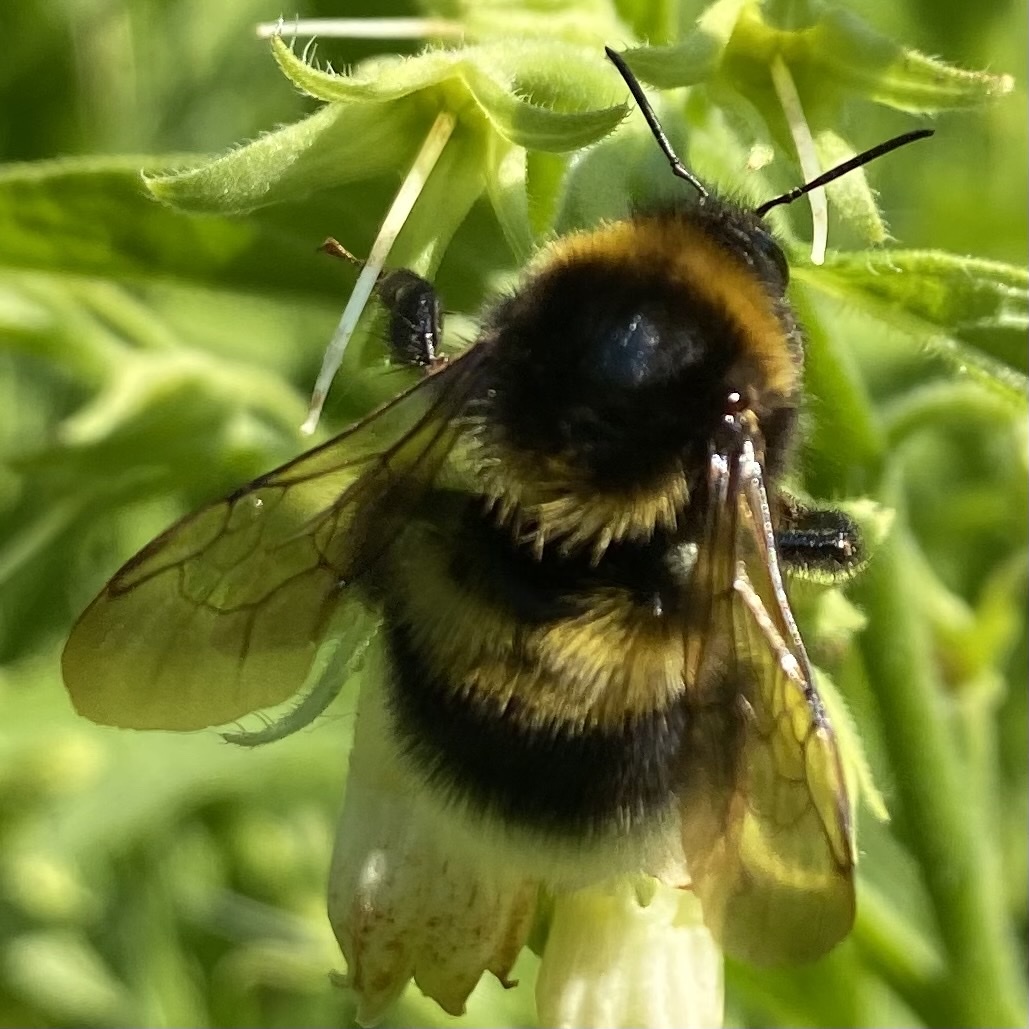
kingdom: Animalia
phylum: Arthropoda
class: Insecta
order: Hymenoptera
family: Apidae
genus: Bombus
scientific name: Bombus hortorum
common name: Garden bumblebee
